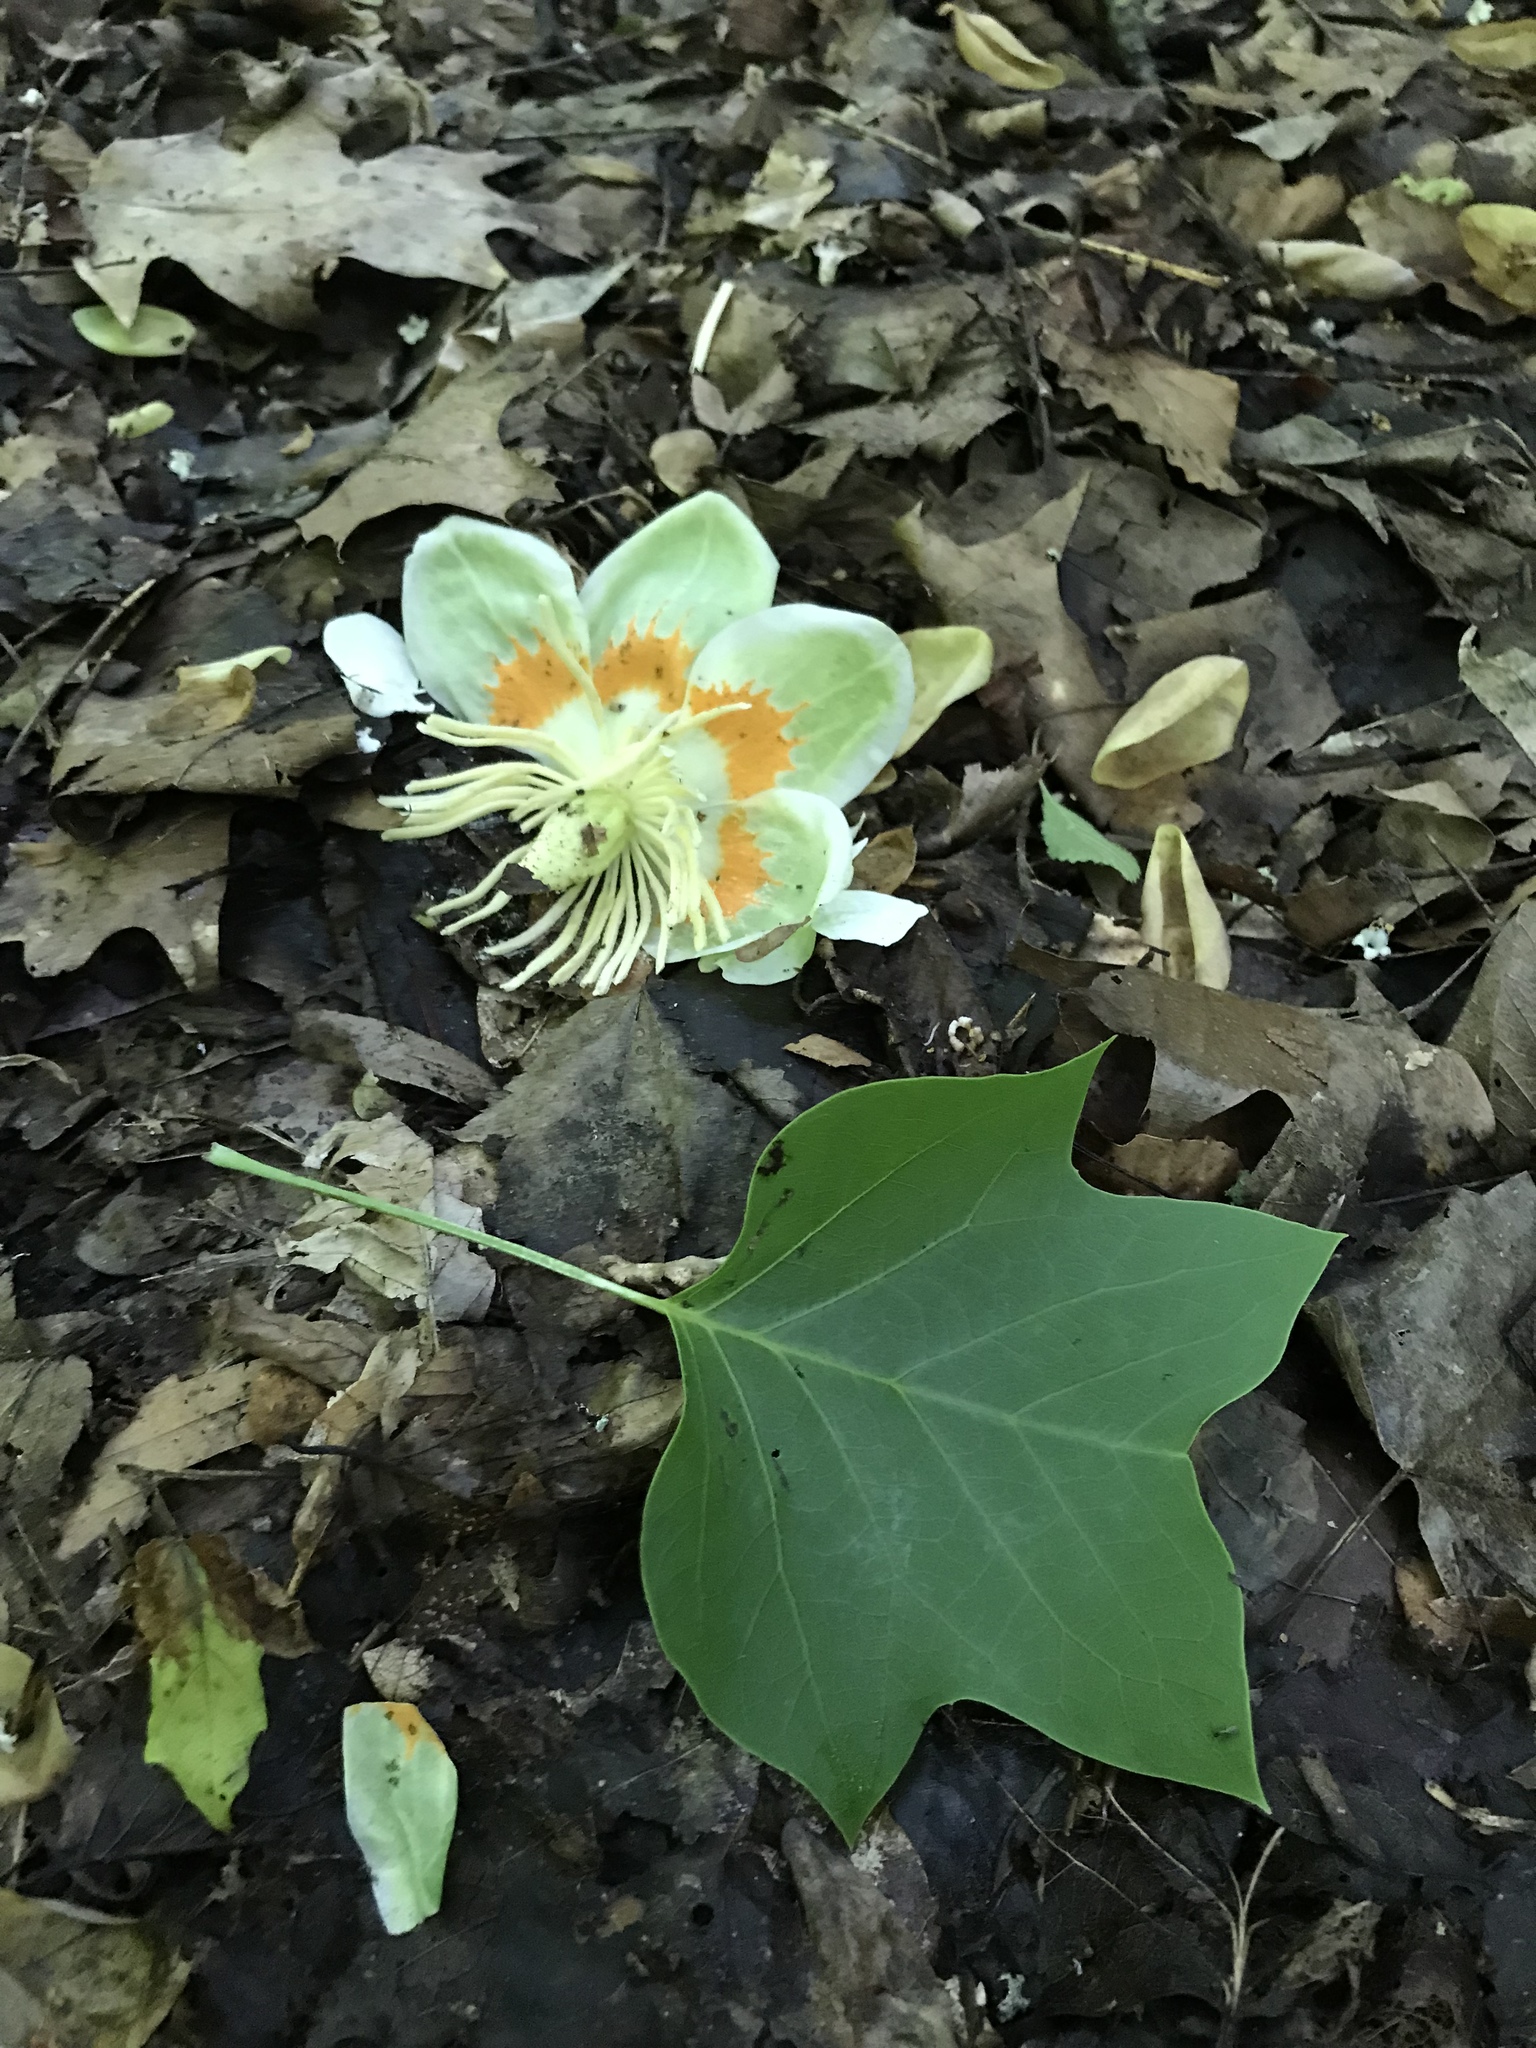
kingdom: Plantae
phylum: Tracheophyta
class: Magnoliopsida
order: Magnoliales
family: Magnoliaceae
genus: Liriodendron
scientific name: Liriodendron tulipifera
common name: Tulip tree
